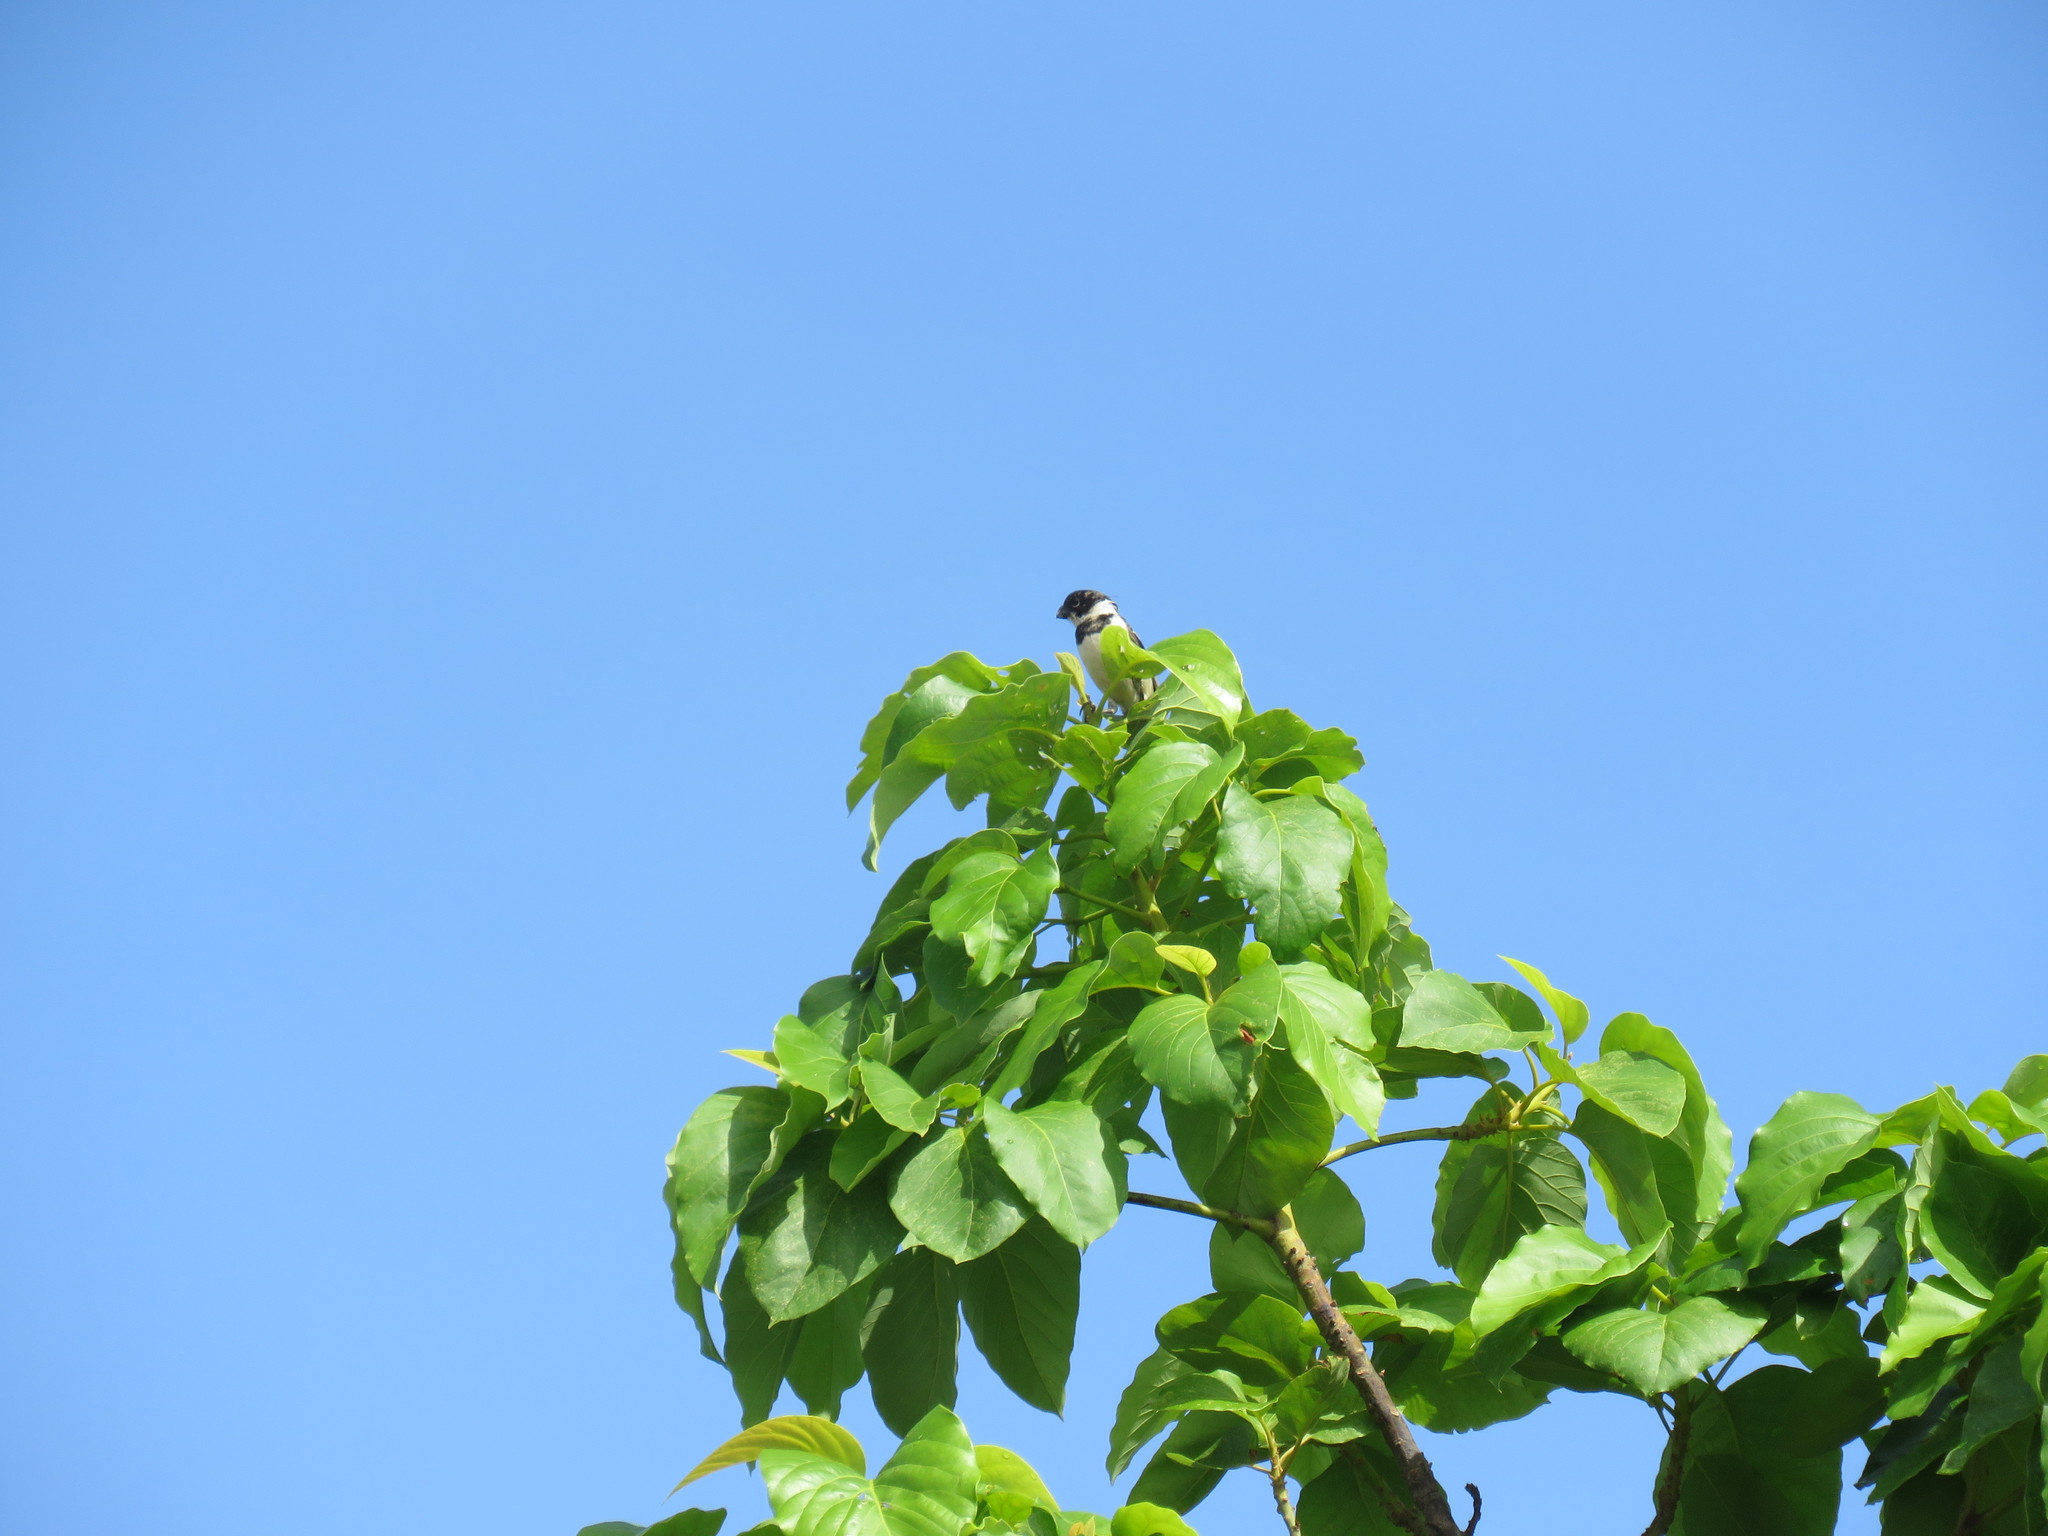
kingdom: Animalia
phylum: Chordata
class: Aves
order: Passeriformes
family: Thraupidae
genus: Sporophila
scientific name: Sporophila morelleti
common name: Morelet's seedeater
